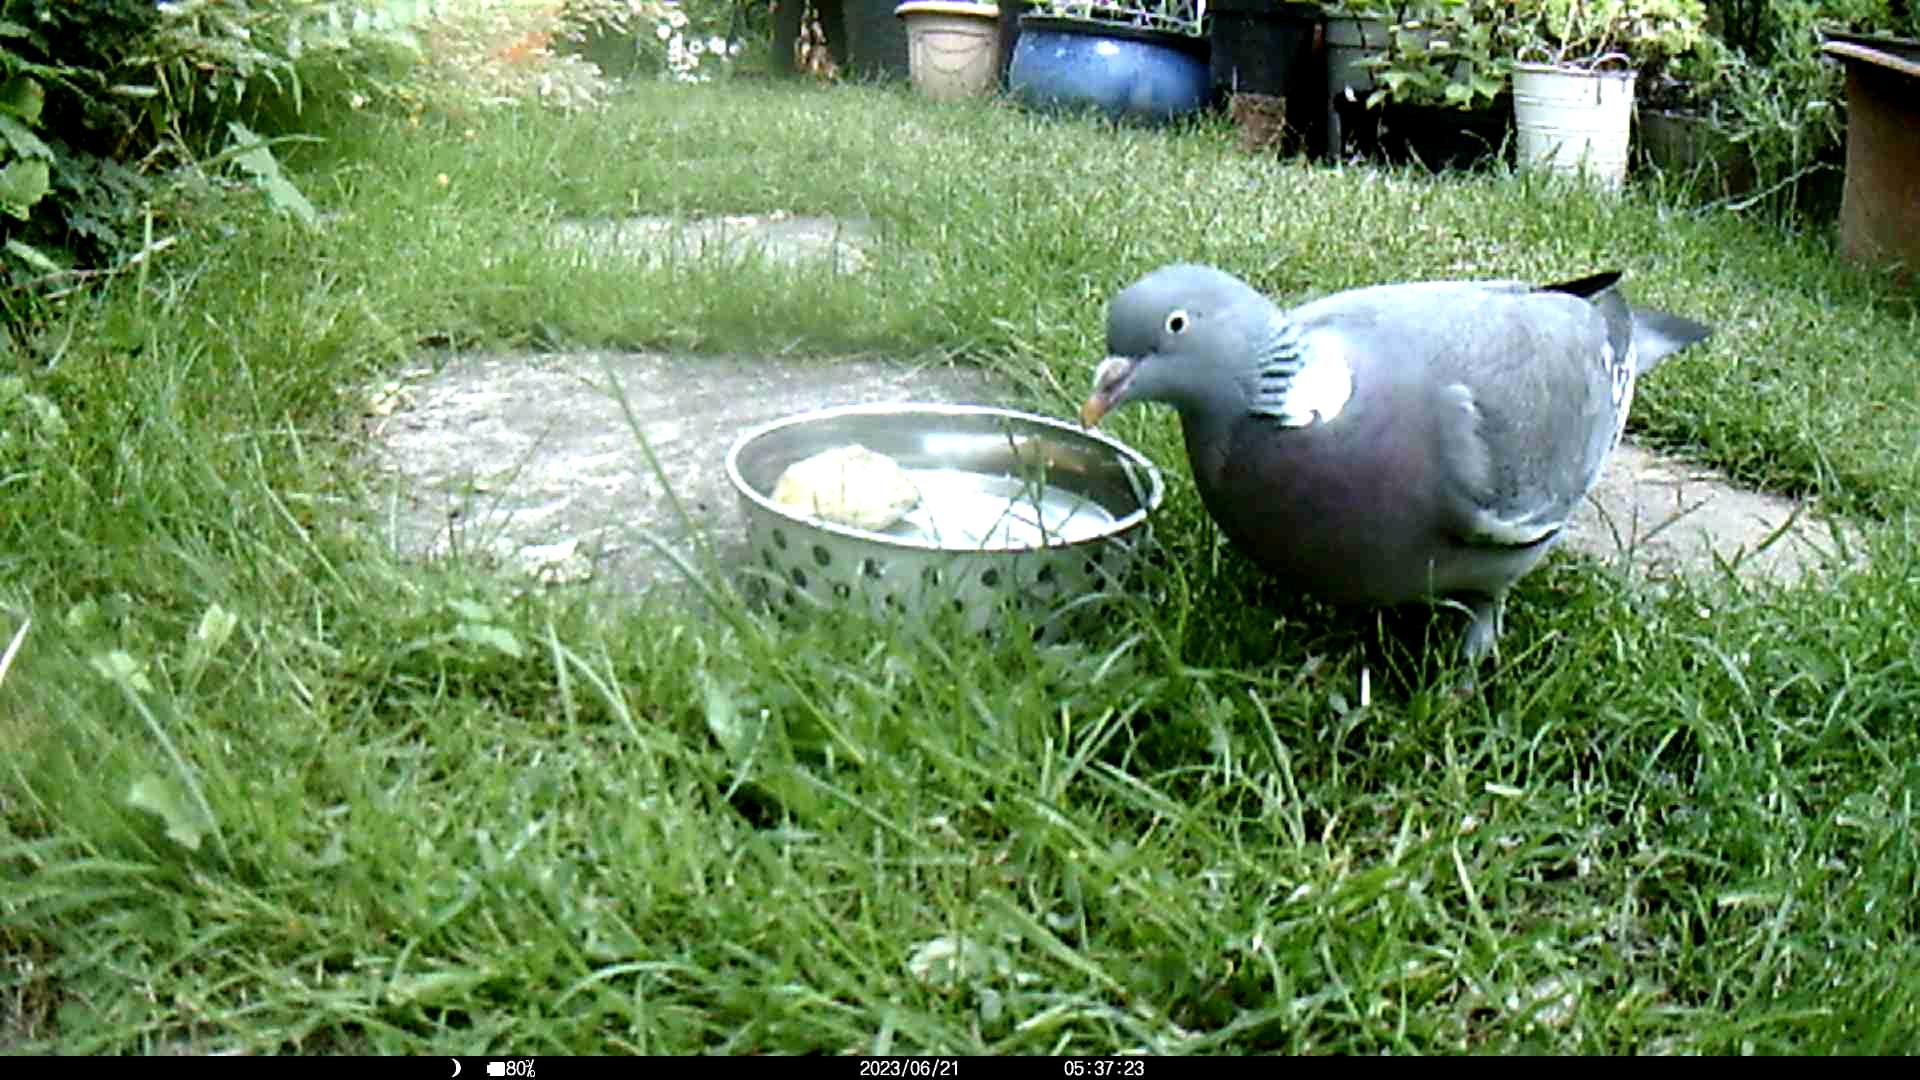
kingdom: Animalia
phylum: Chordata
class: Aves
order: Columbiformes
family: Columbidae
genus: Columba
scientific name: Columba palumbus
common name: Common wood pigeon
